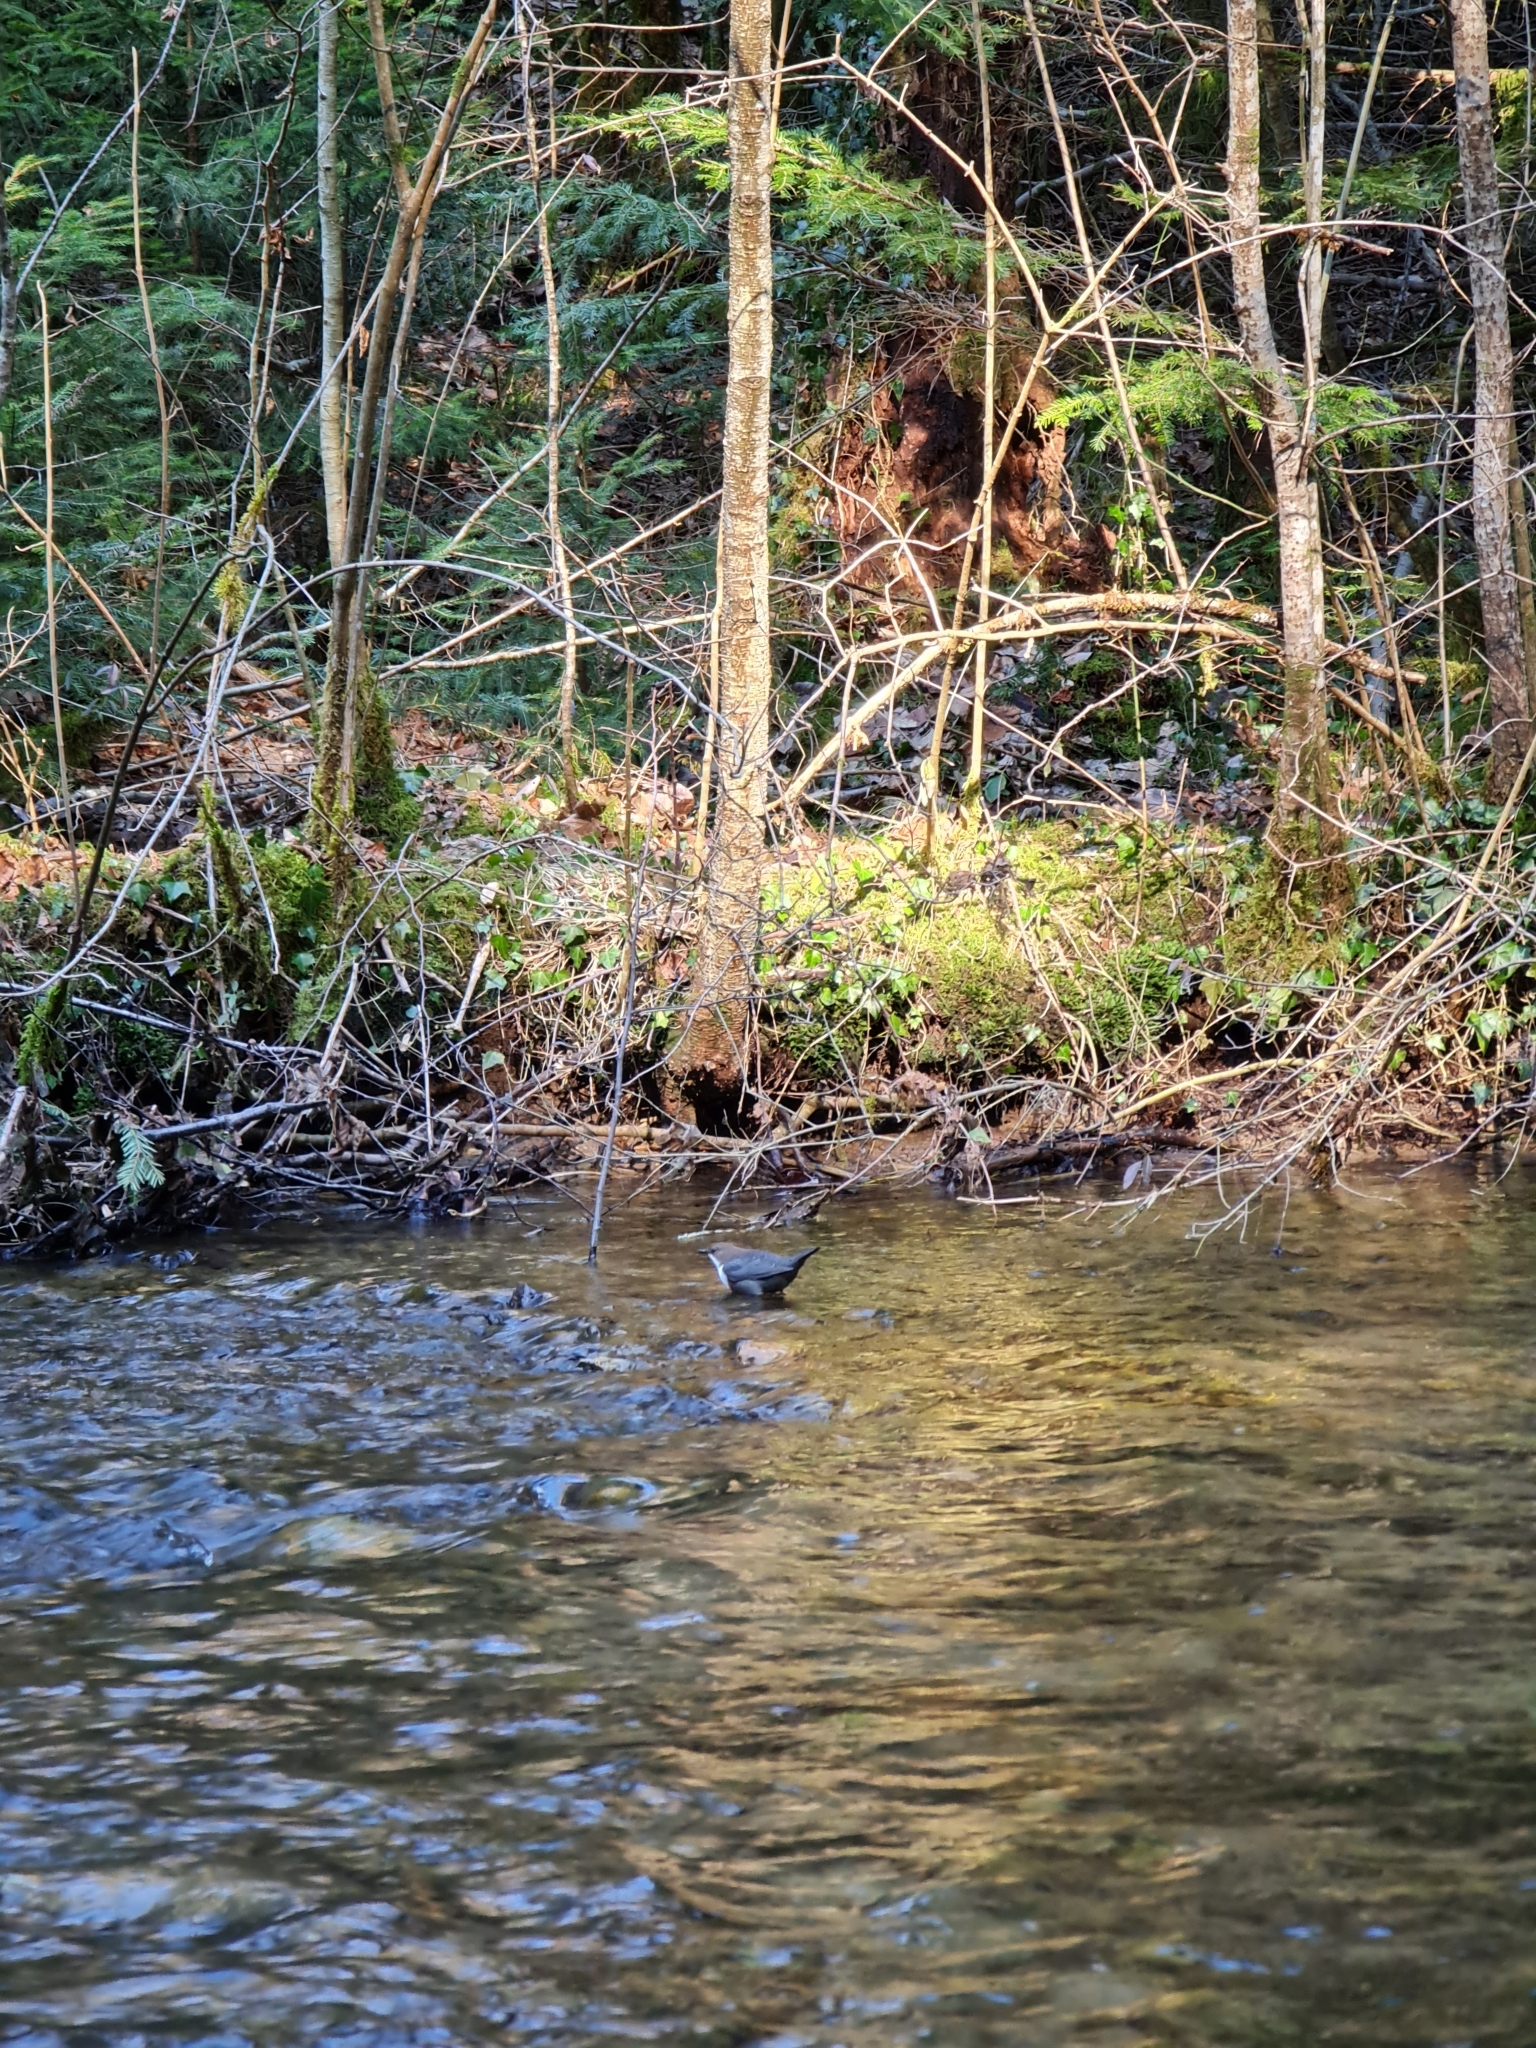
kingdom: Animalia
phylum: Chordata
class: Aves
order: Passeriformes
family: Cinclidae
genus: Cinclus
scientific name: Cinclus cinclus
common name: White-throated dipper
